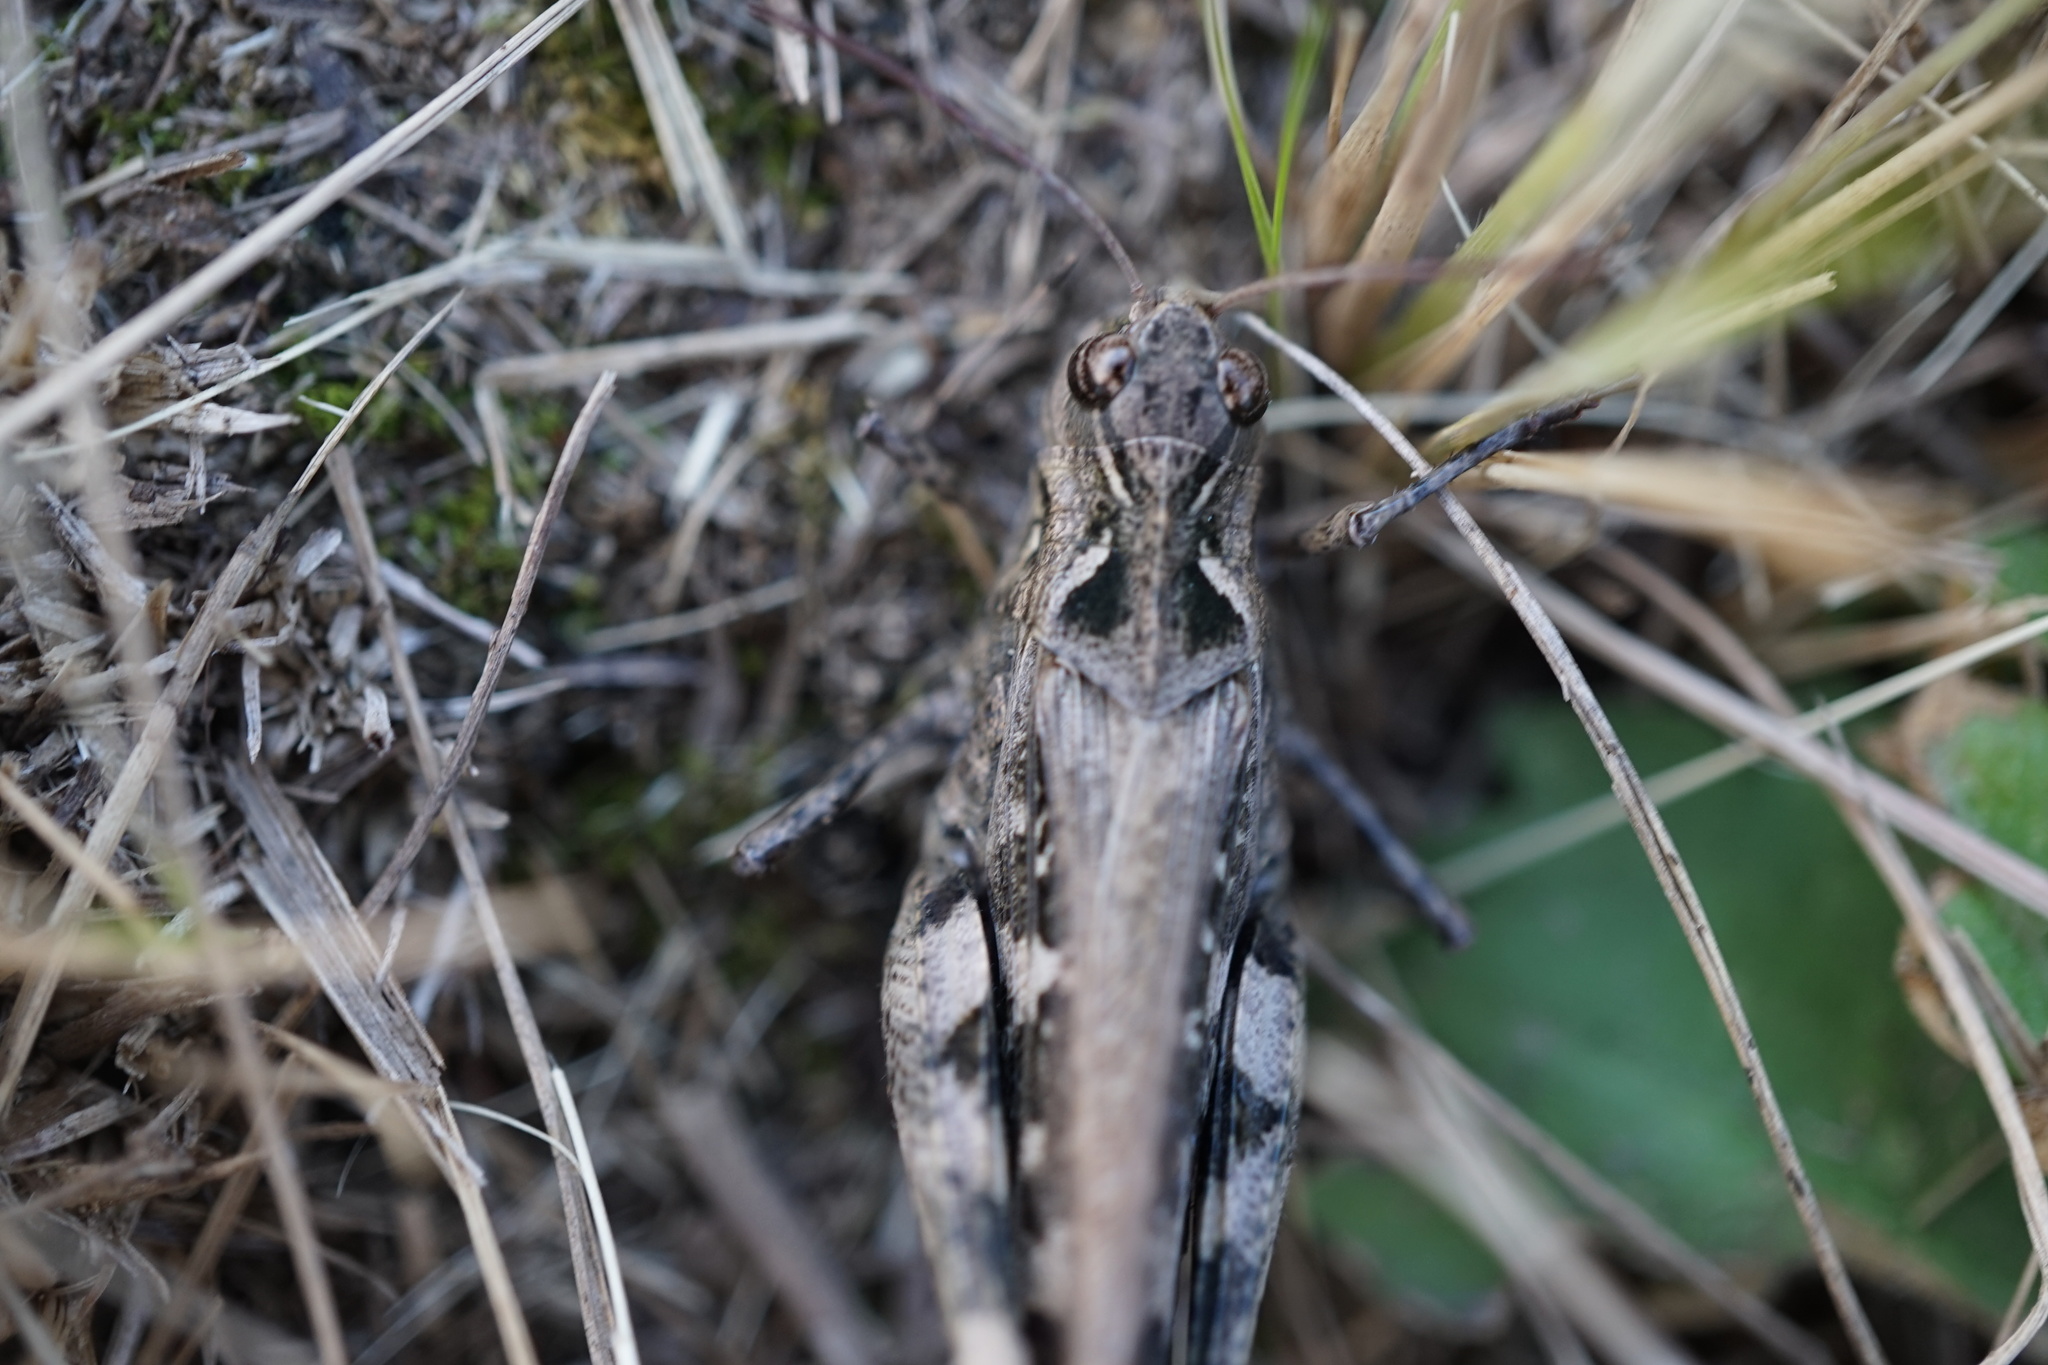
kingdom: Animalia
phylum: Arthropoda
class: Insecta
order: Orthoptera
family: Acrididae
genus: Oedaleus
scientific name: Oedaleus infernalis
